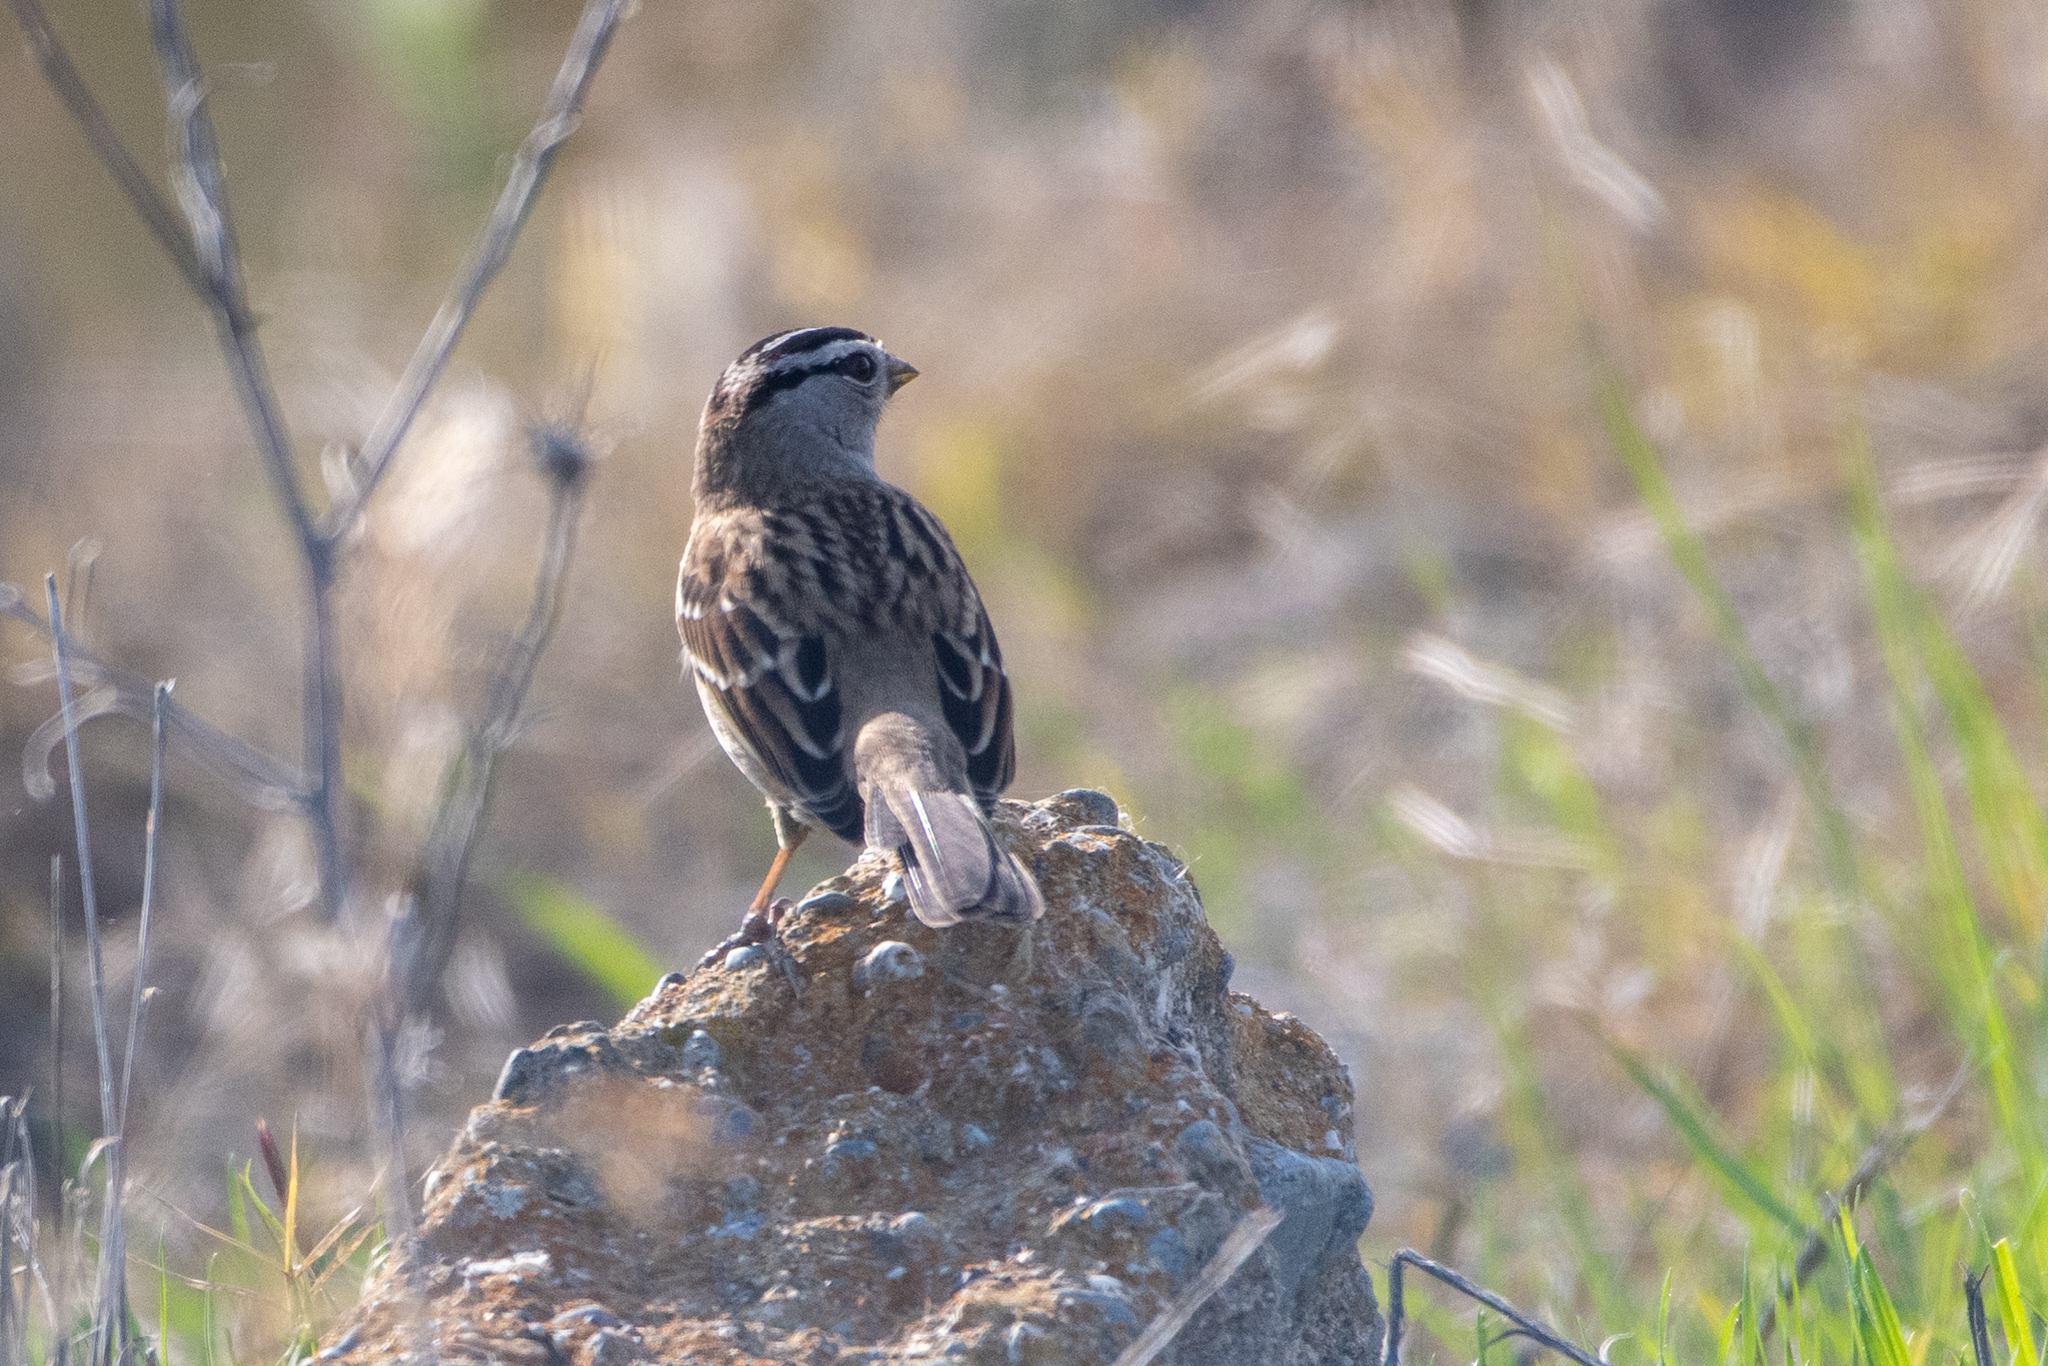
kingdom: Animalia
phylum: Chordata
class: Aves
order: Passeriformes
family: Passerellidae
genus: Zonotrichia
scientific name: Zonotrichia leucophrys
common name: White-crowned sparrow
